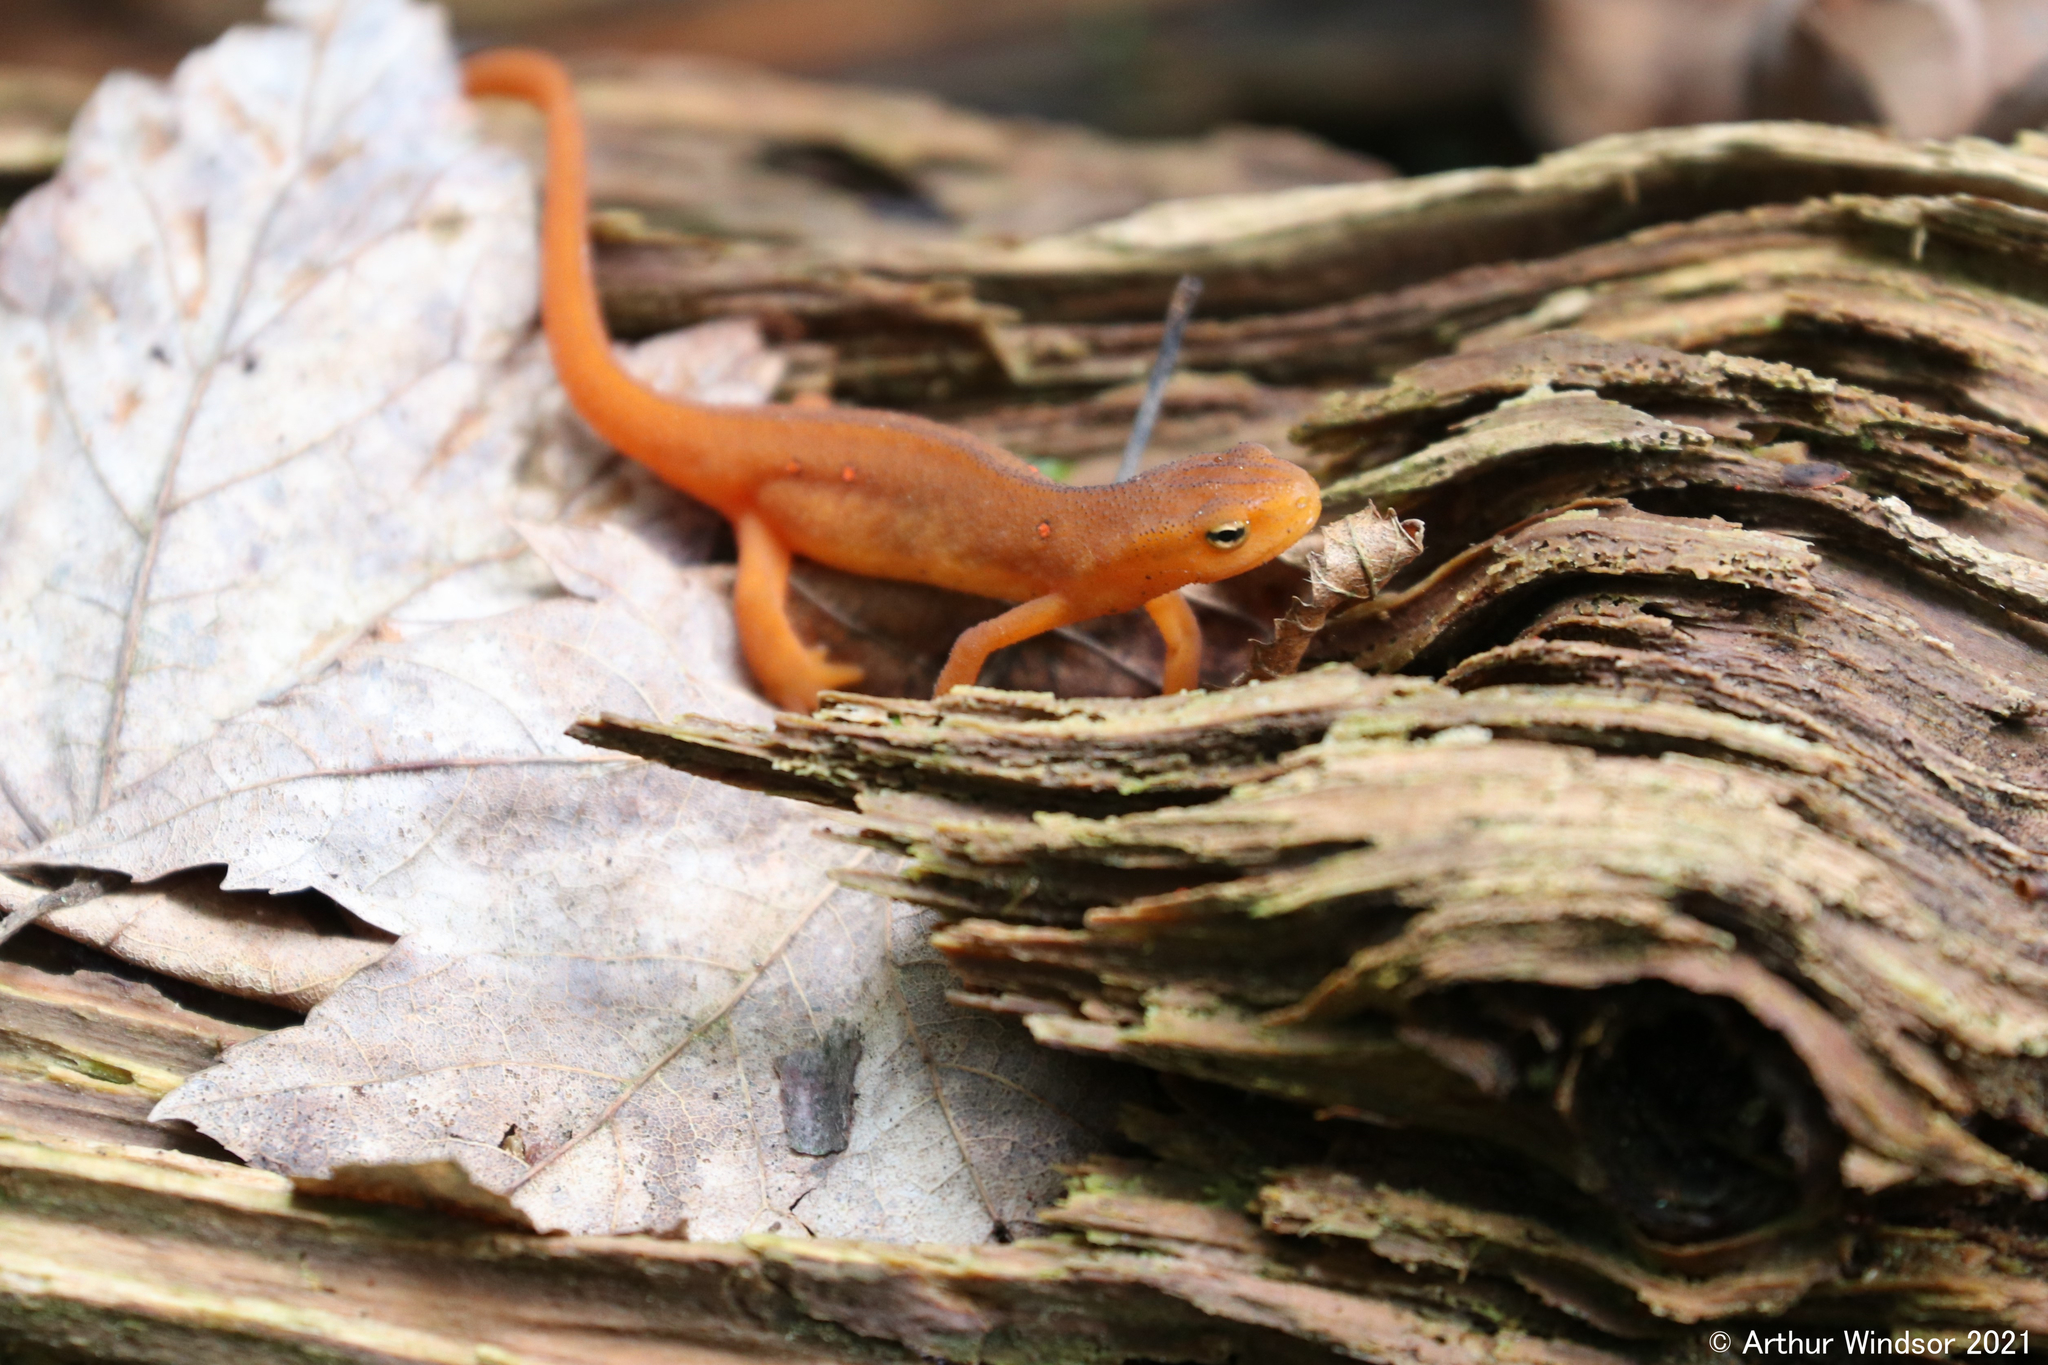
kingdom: Animalia
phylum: Chordata
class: Amphibia
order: Caudata
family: Salamandridae
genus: Notophthalmus
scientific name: Notophthalmus viridescens
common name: Eastern newt
